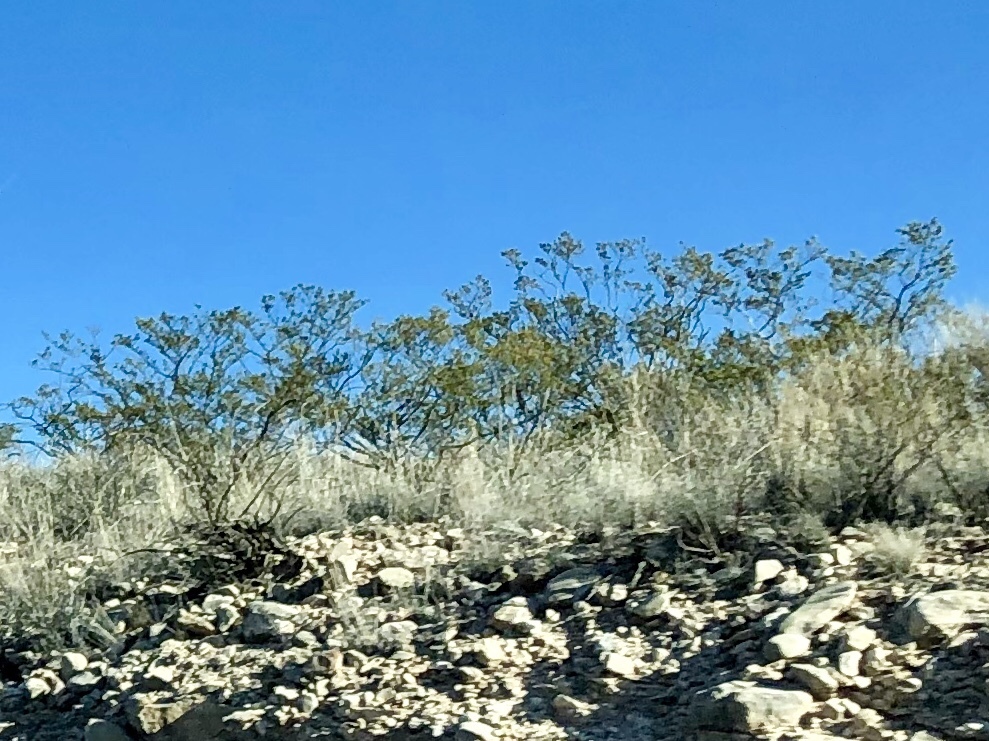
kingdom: Plantae
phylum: Tracheophyta
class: Magnoliopsida
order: Zygophyllales
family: Zygophyllaceae
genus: Larrea
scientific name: Larrea tridentata
